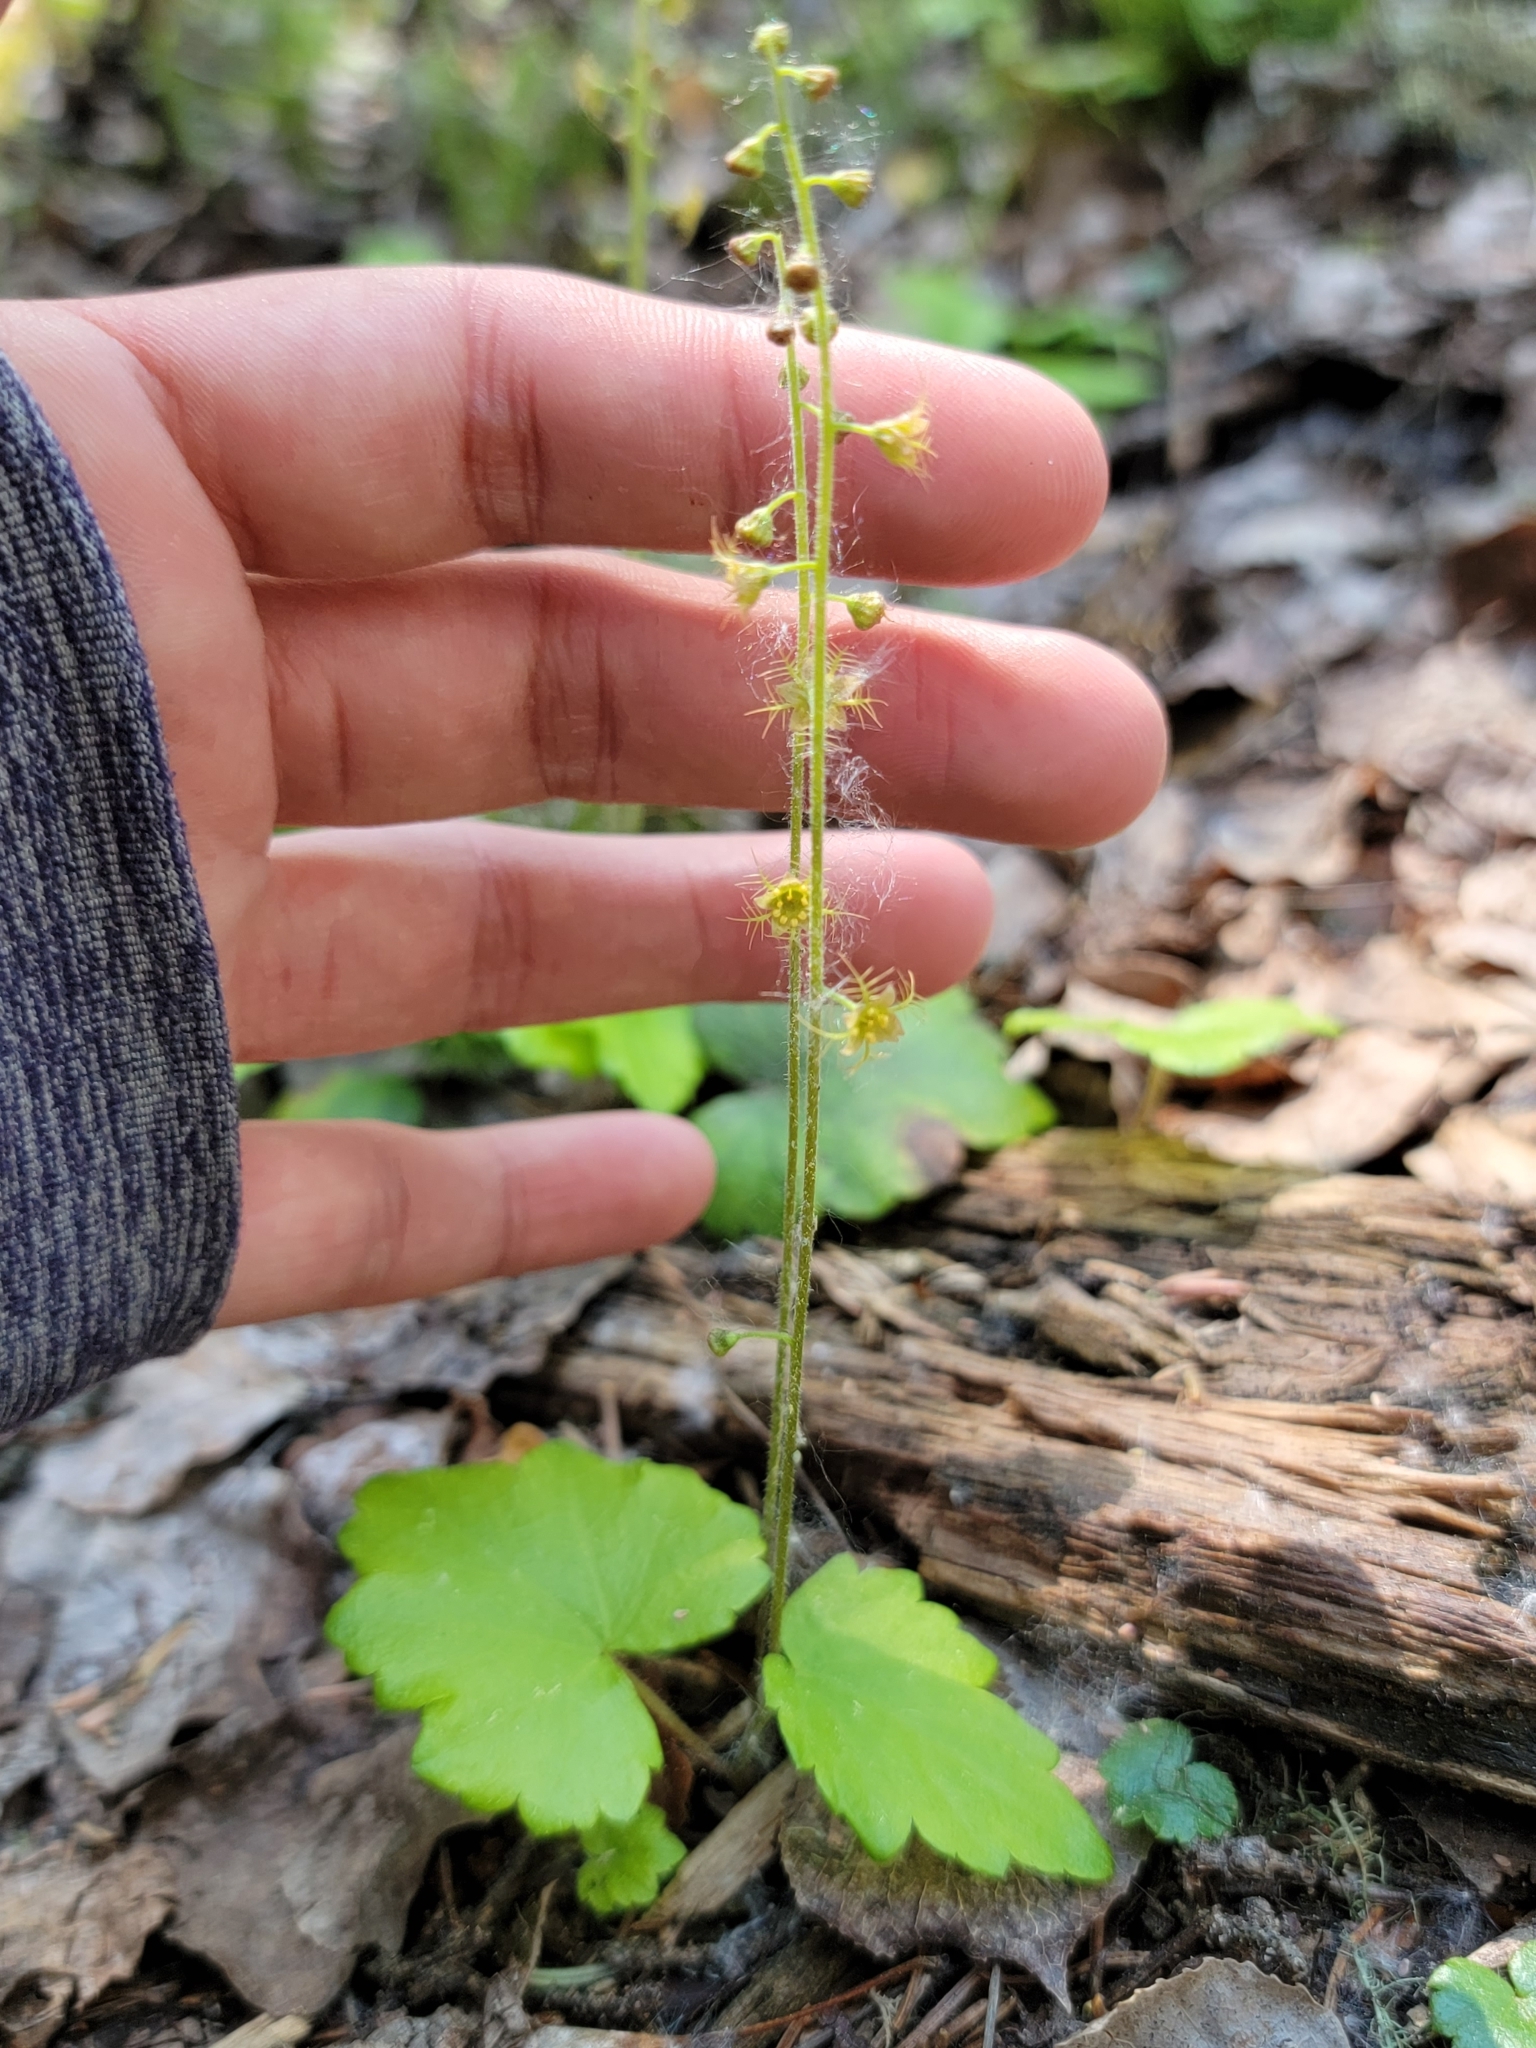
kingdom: Plantae
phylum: Tracheophyta
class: Magnoliopsida
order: Saxifragales
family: Saxifragaceae
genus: Mitella
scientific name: Mitella nuda
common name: Bare-stemmed bishop's-cap
